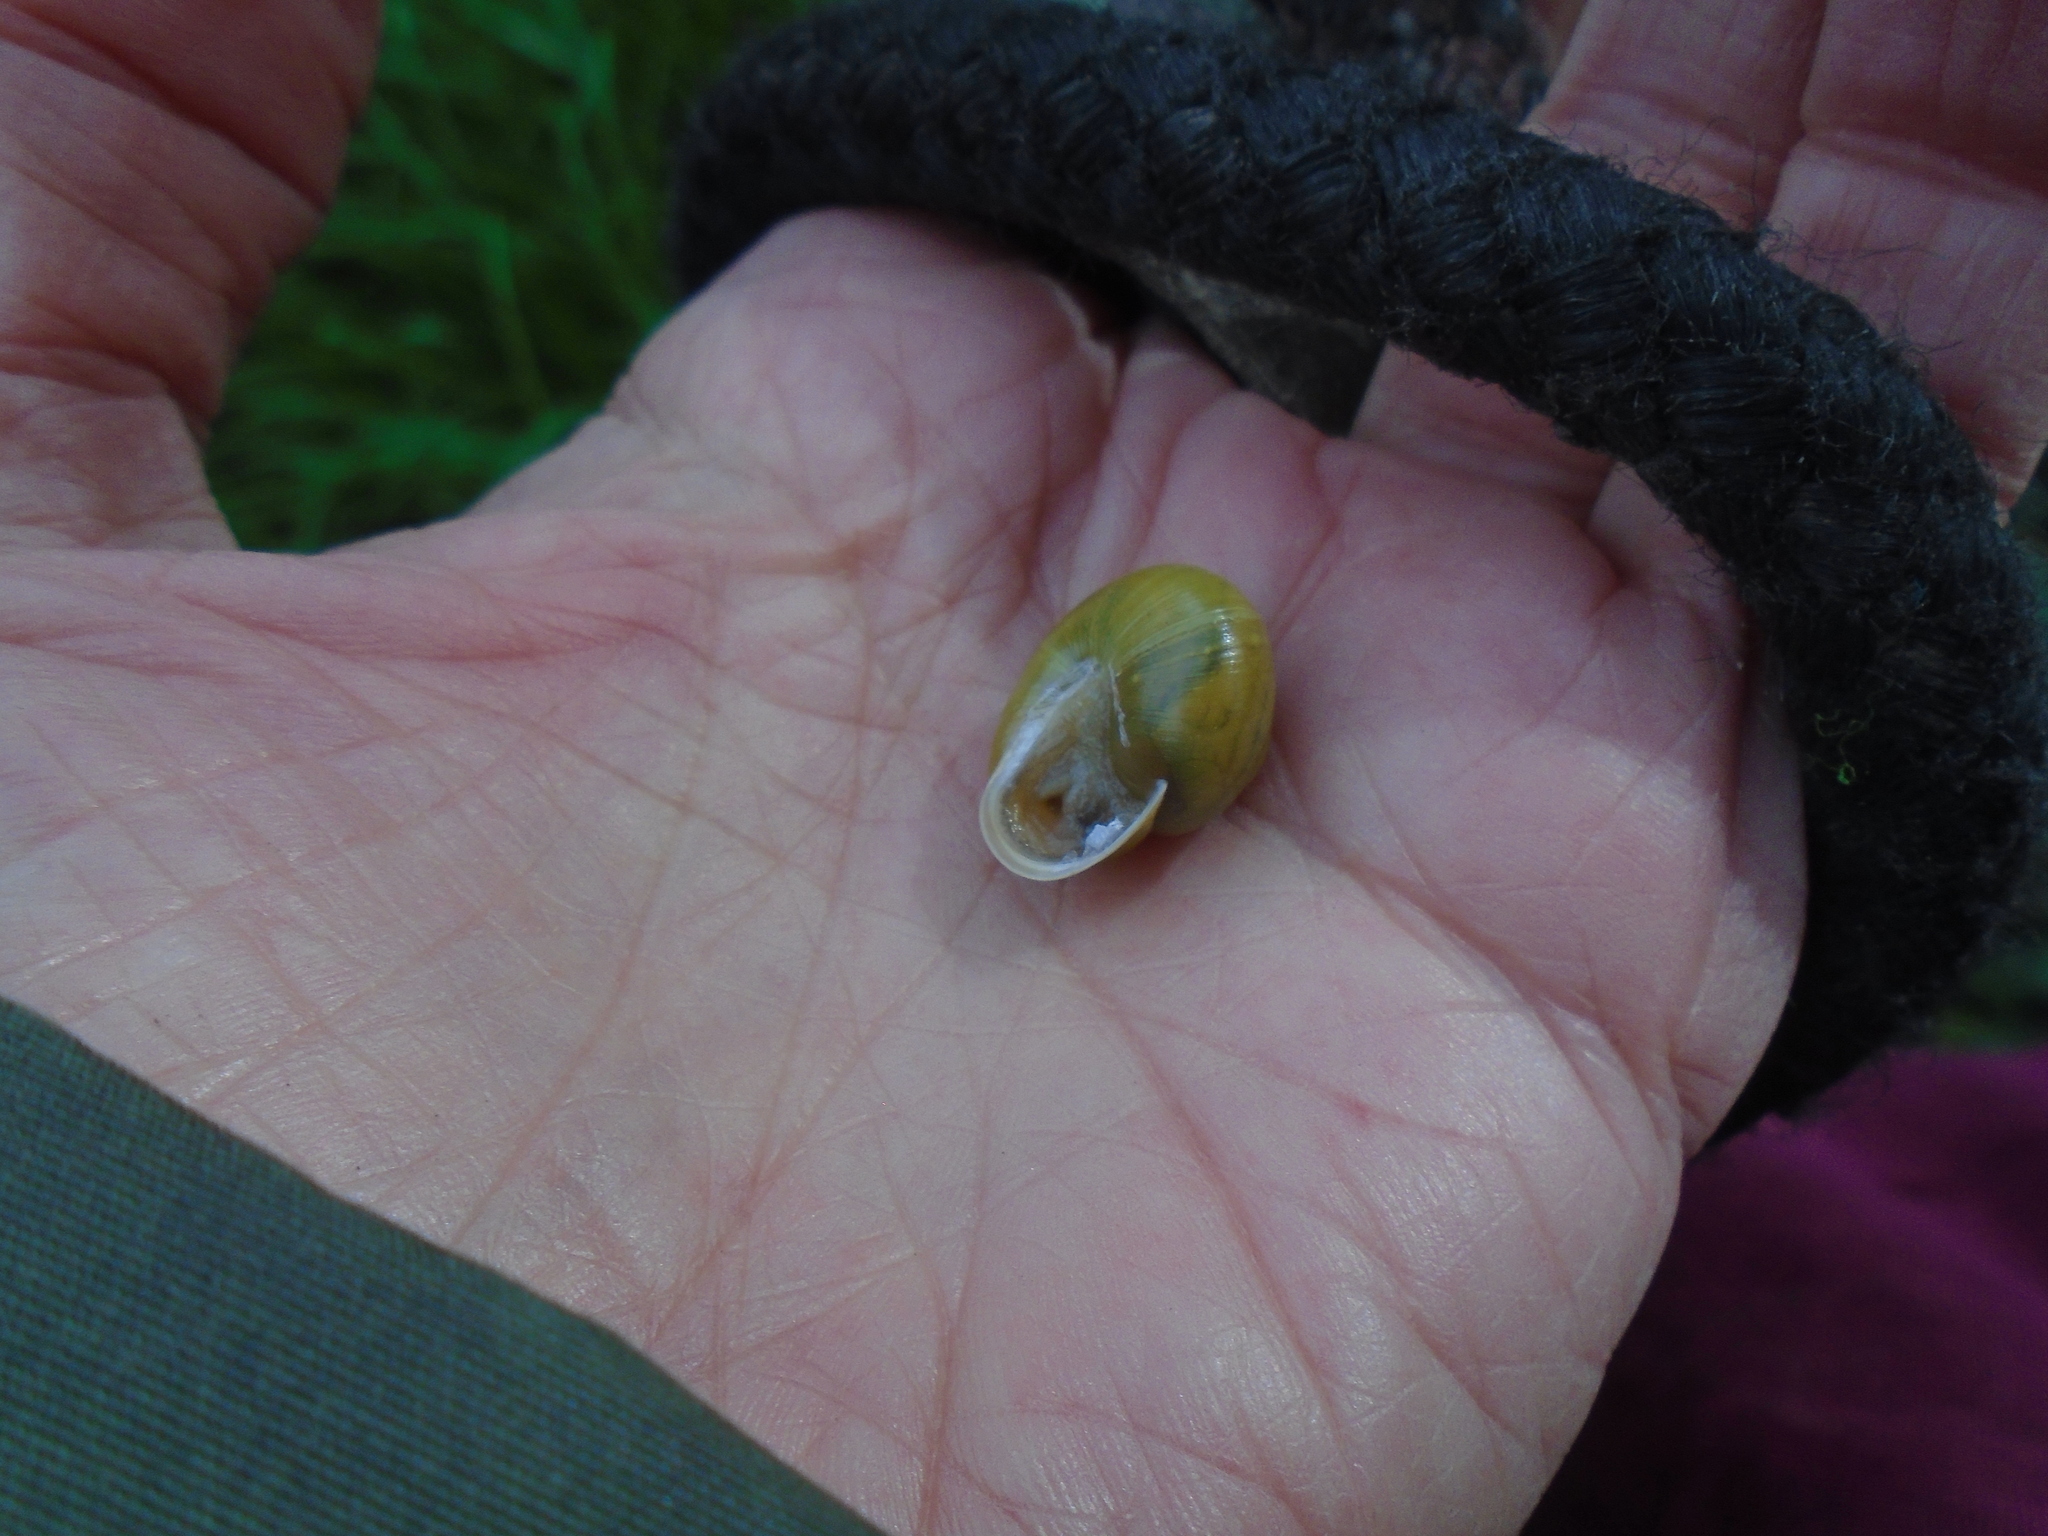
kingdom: Animalia
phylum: Mollusca
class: Gastropoda
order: Stylommatophora
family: Helicidae
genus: Cepaea
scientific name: Cepaea hortensis
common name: White-lip gardensnail
